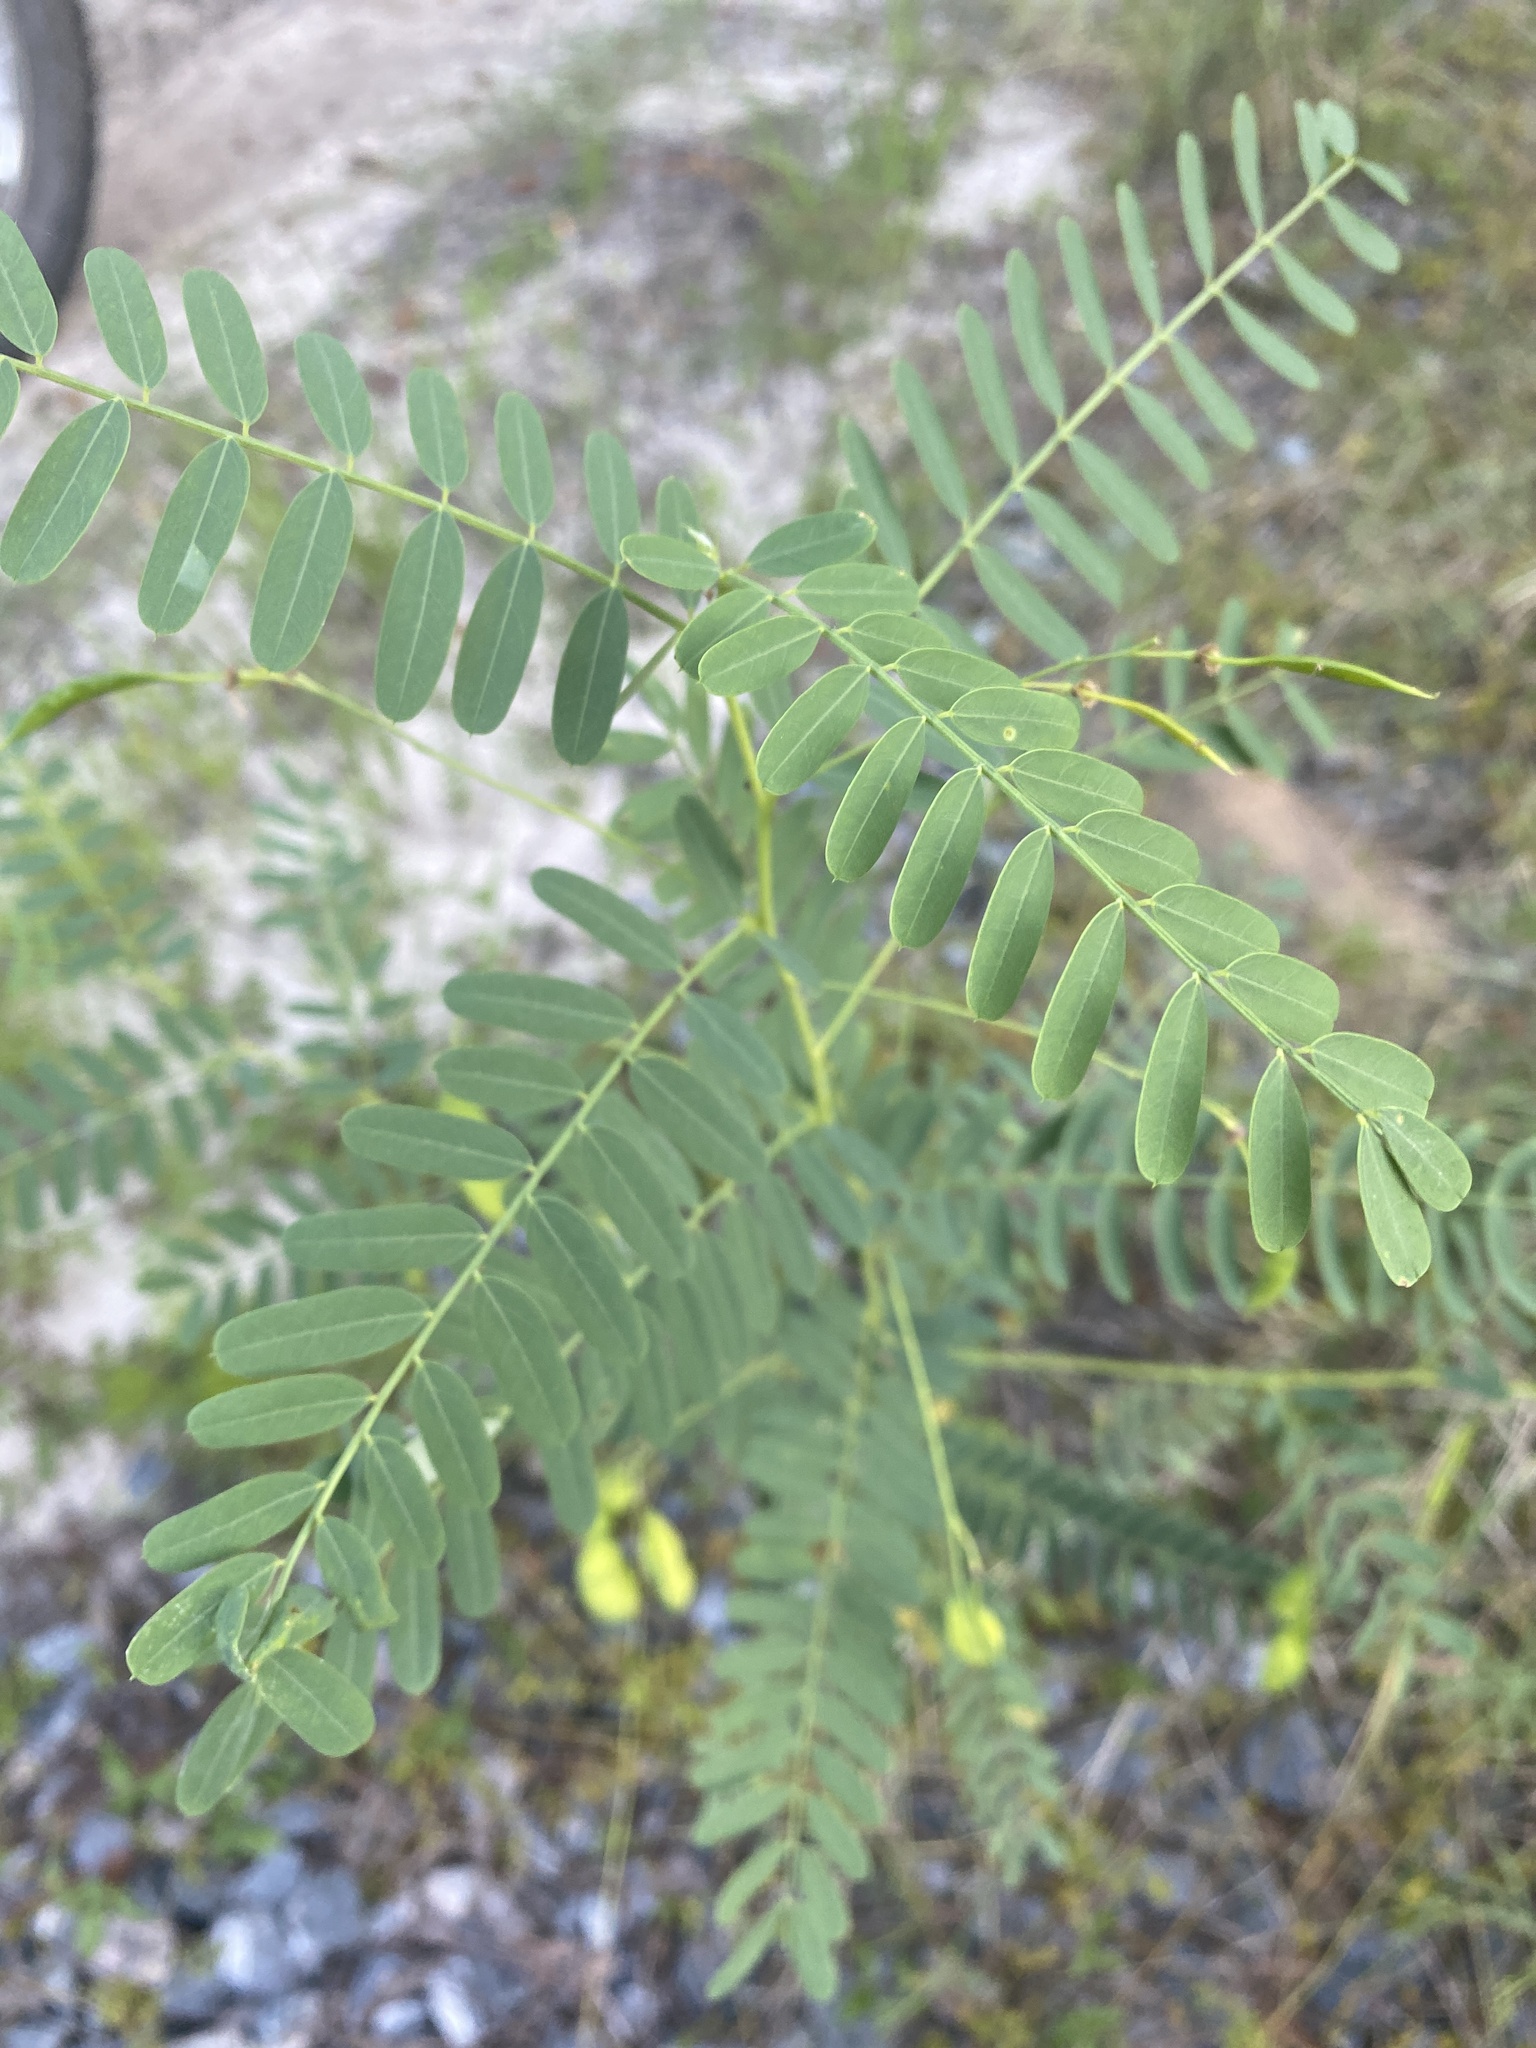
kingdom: Plantae
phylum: Tracheophyta
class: Magnoliopsida
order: Fabales
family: Fabaceae
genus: Sesbania
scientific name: Sesbania vesicaria
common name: Bagpod
